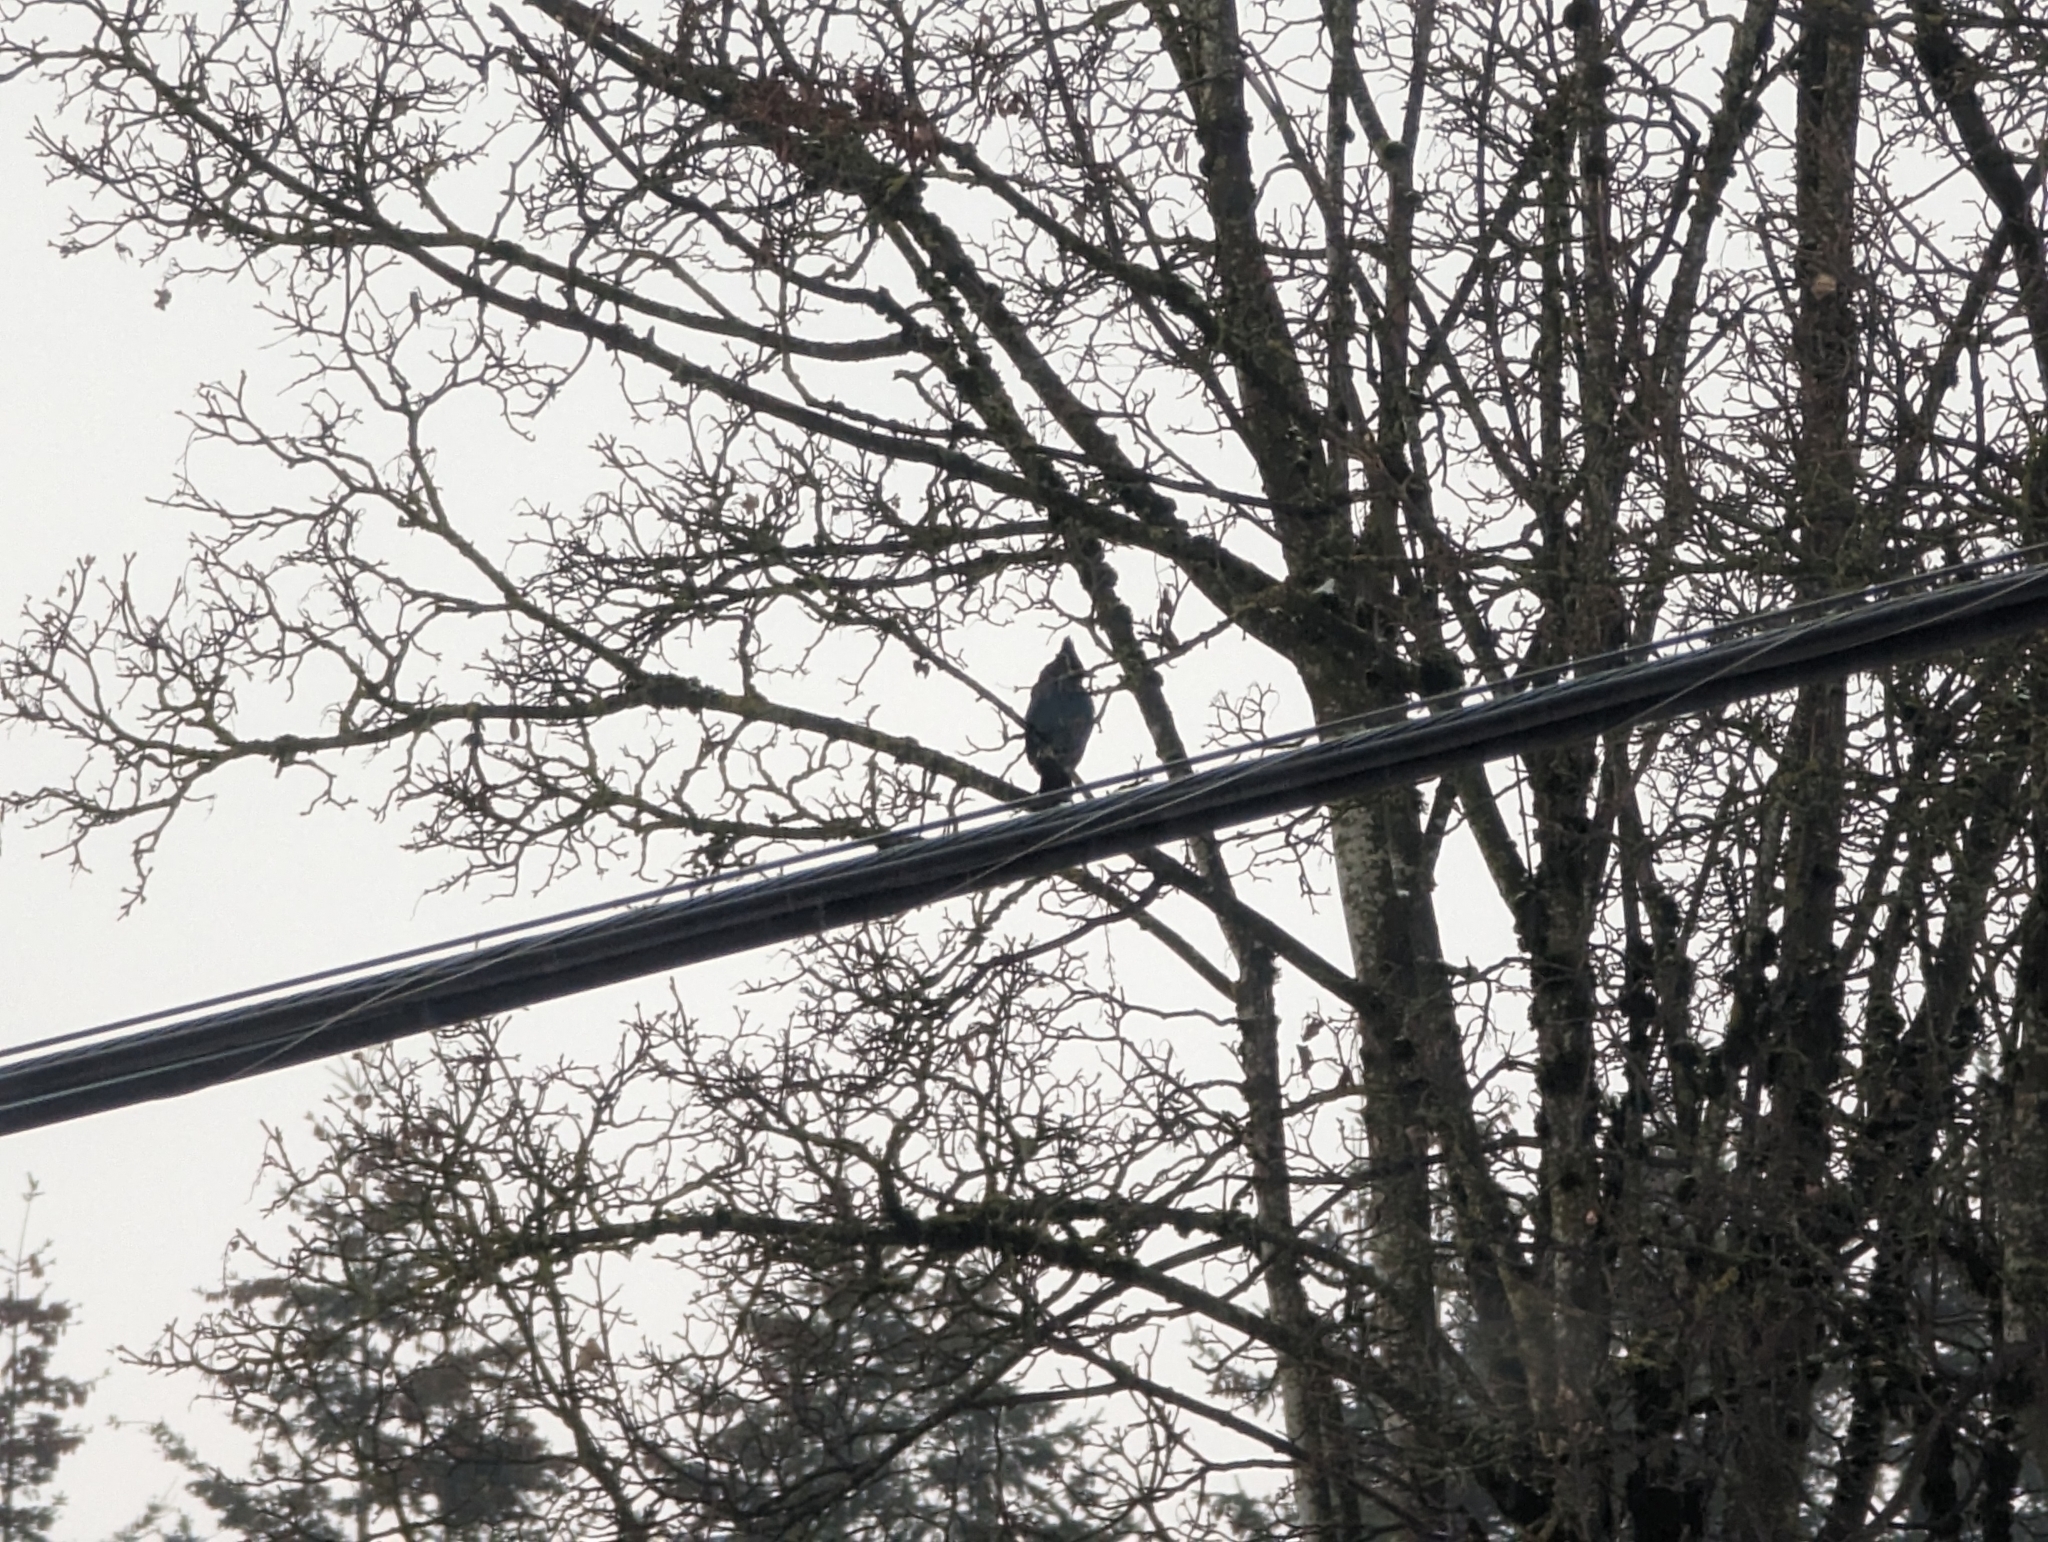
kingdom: Animalia
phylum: Chordata
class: Aves
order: Passeriformes
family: Corvidae
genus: Cyanocitta
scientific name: Cyanocitta stelleri
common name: Steller's jay
